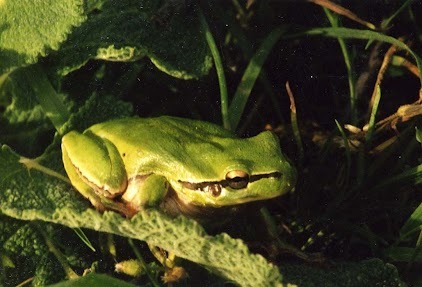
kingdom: Animalia
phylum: Chordata
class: Amphibia
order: Anura
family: Hylidae
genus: Hyla
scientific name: Hyla savignyi
